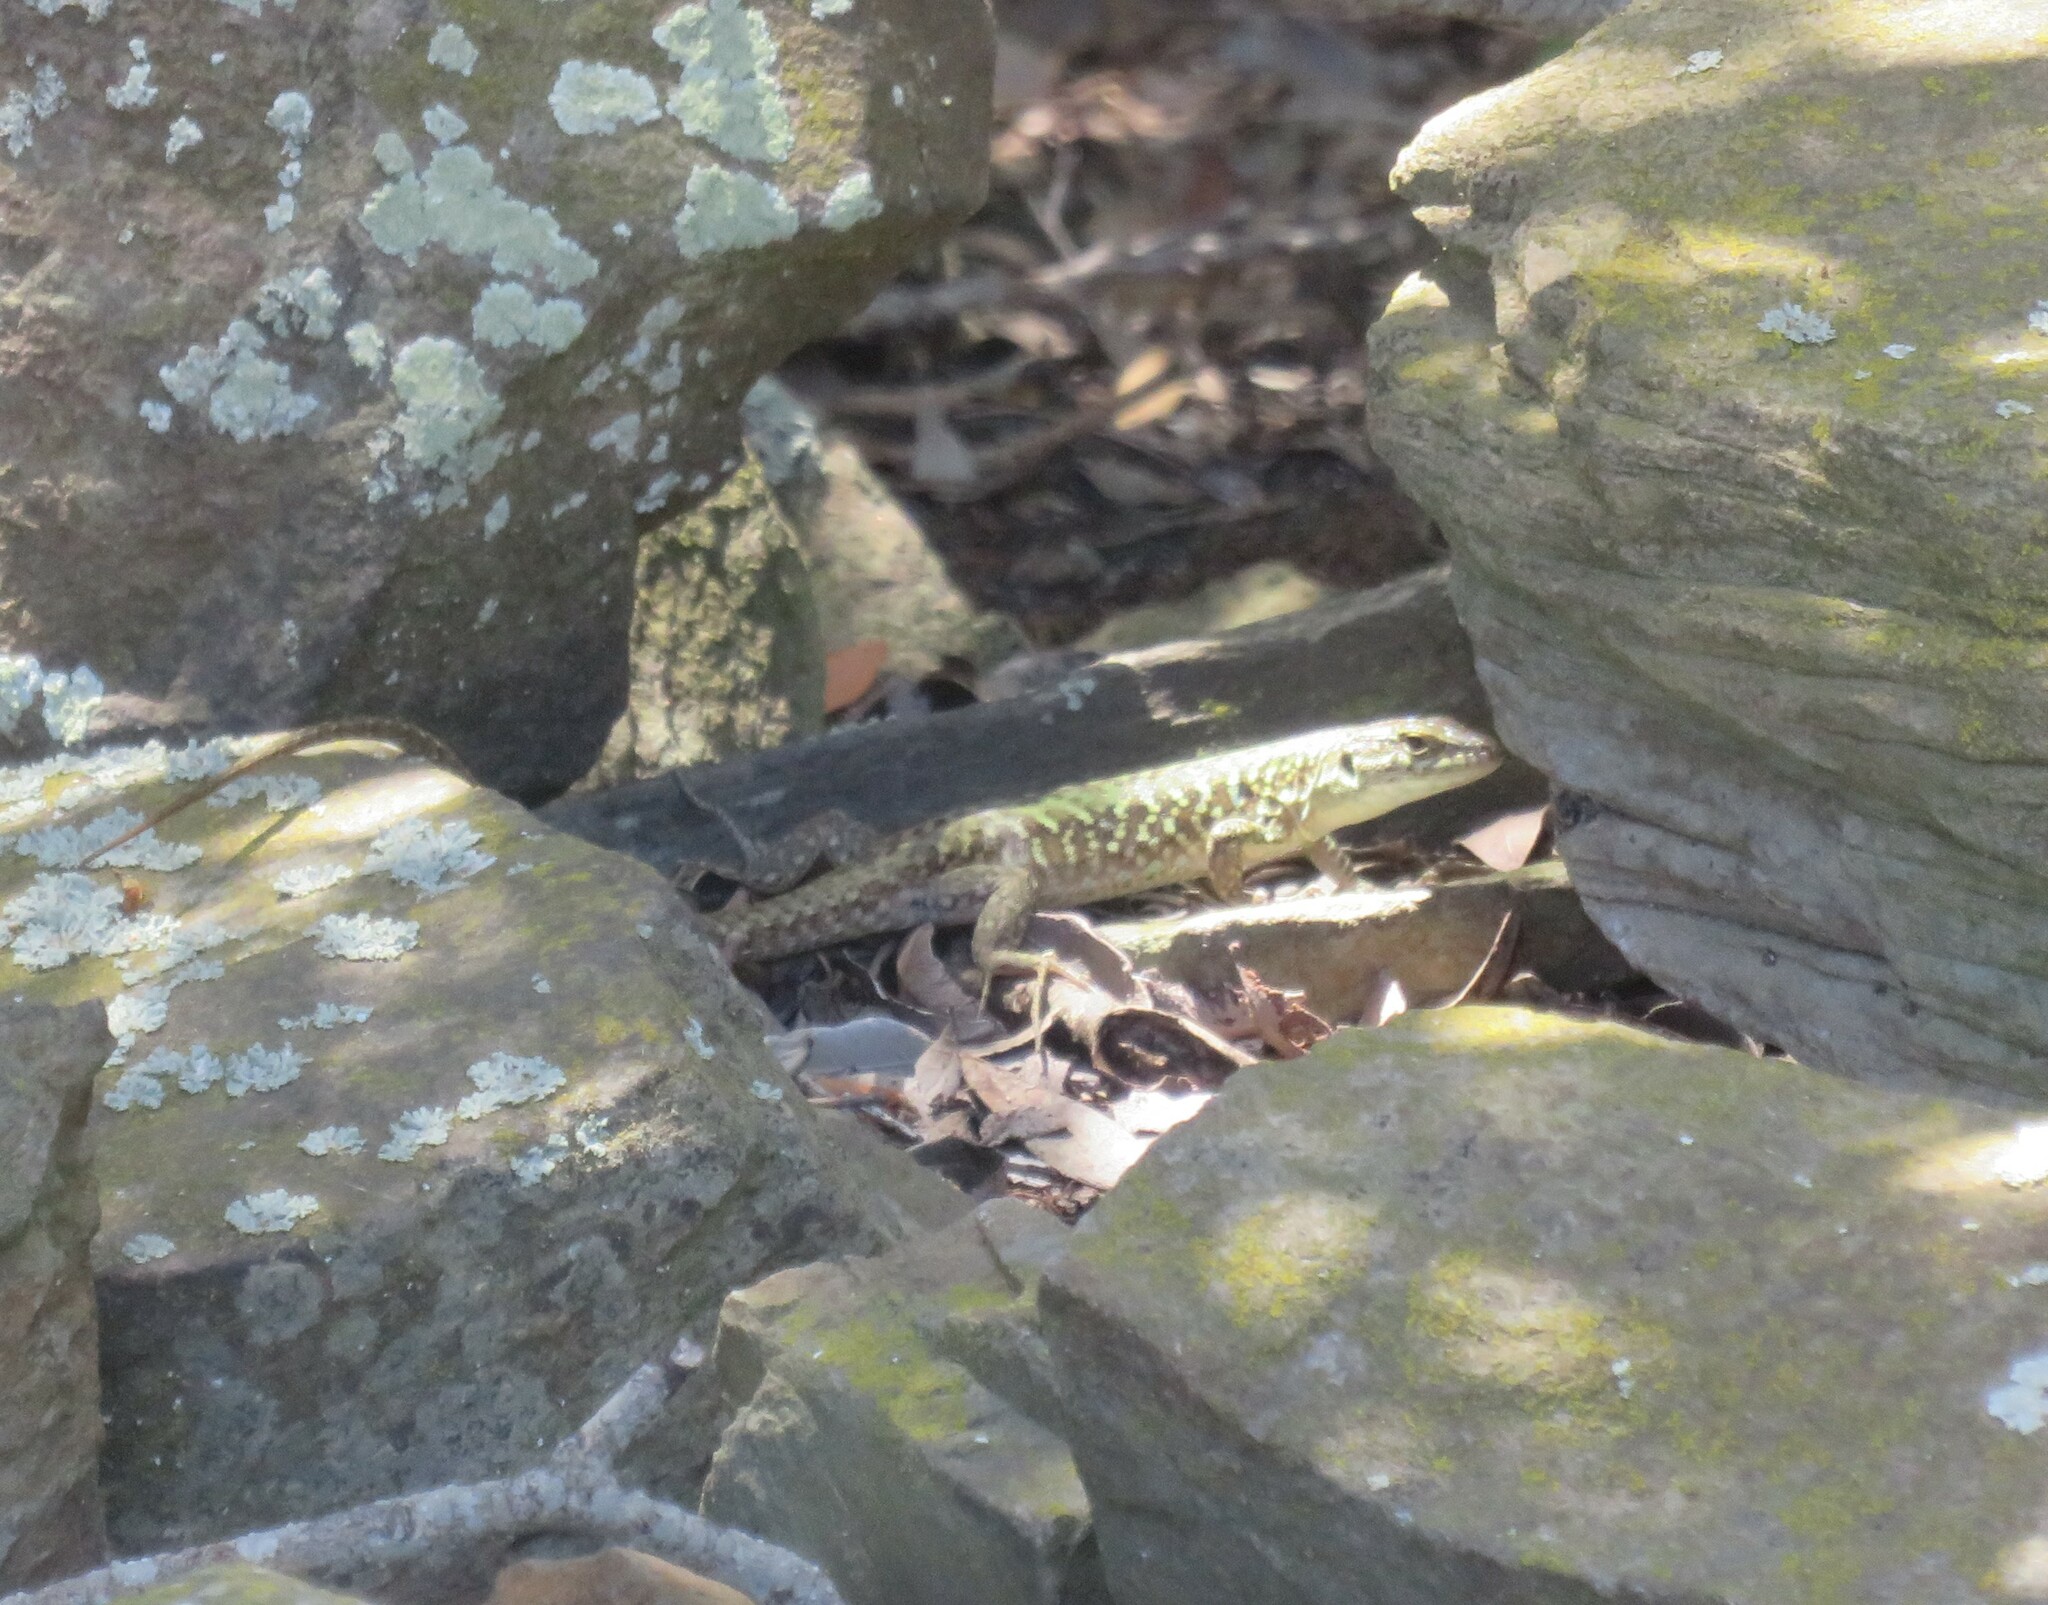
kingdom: Animalia
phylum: Chordata
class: Squamata
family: Lacertidae
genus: Podarcis
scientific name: Podarcis siculus
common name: Italian wall lizard
